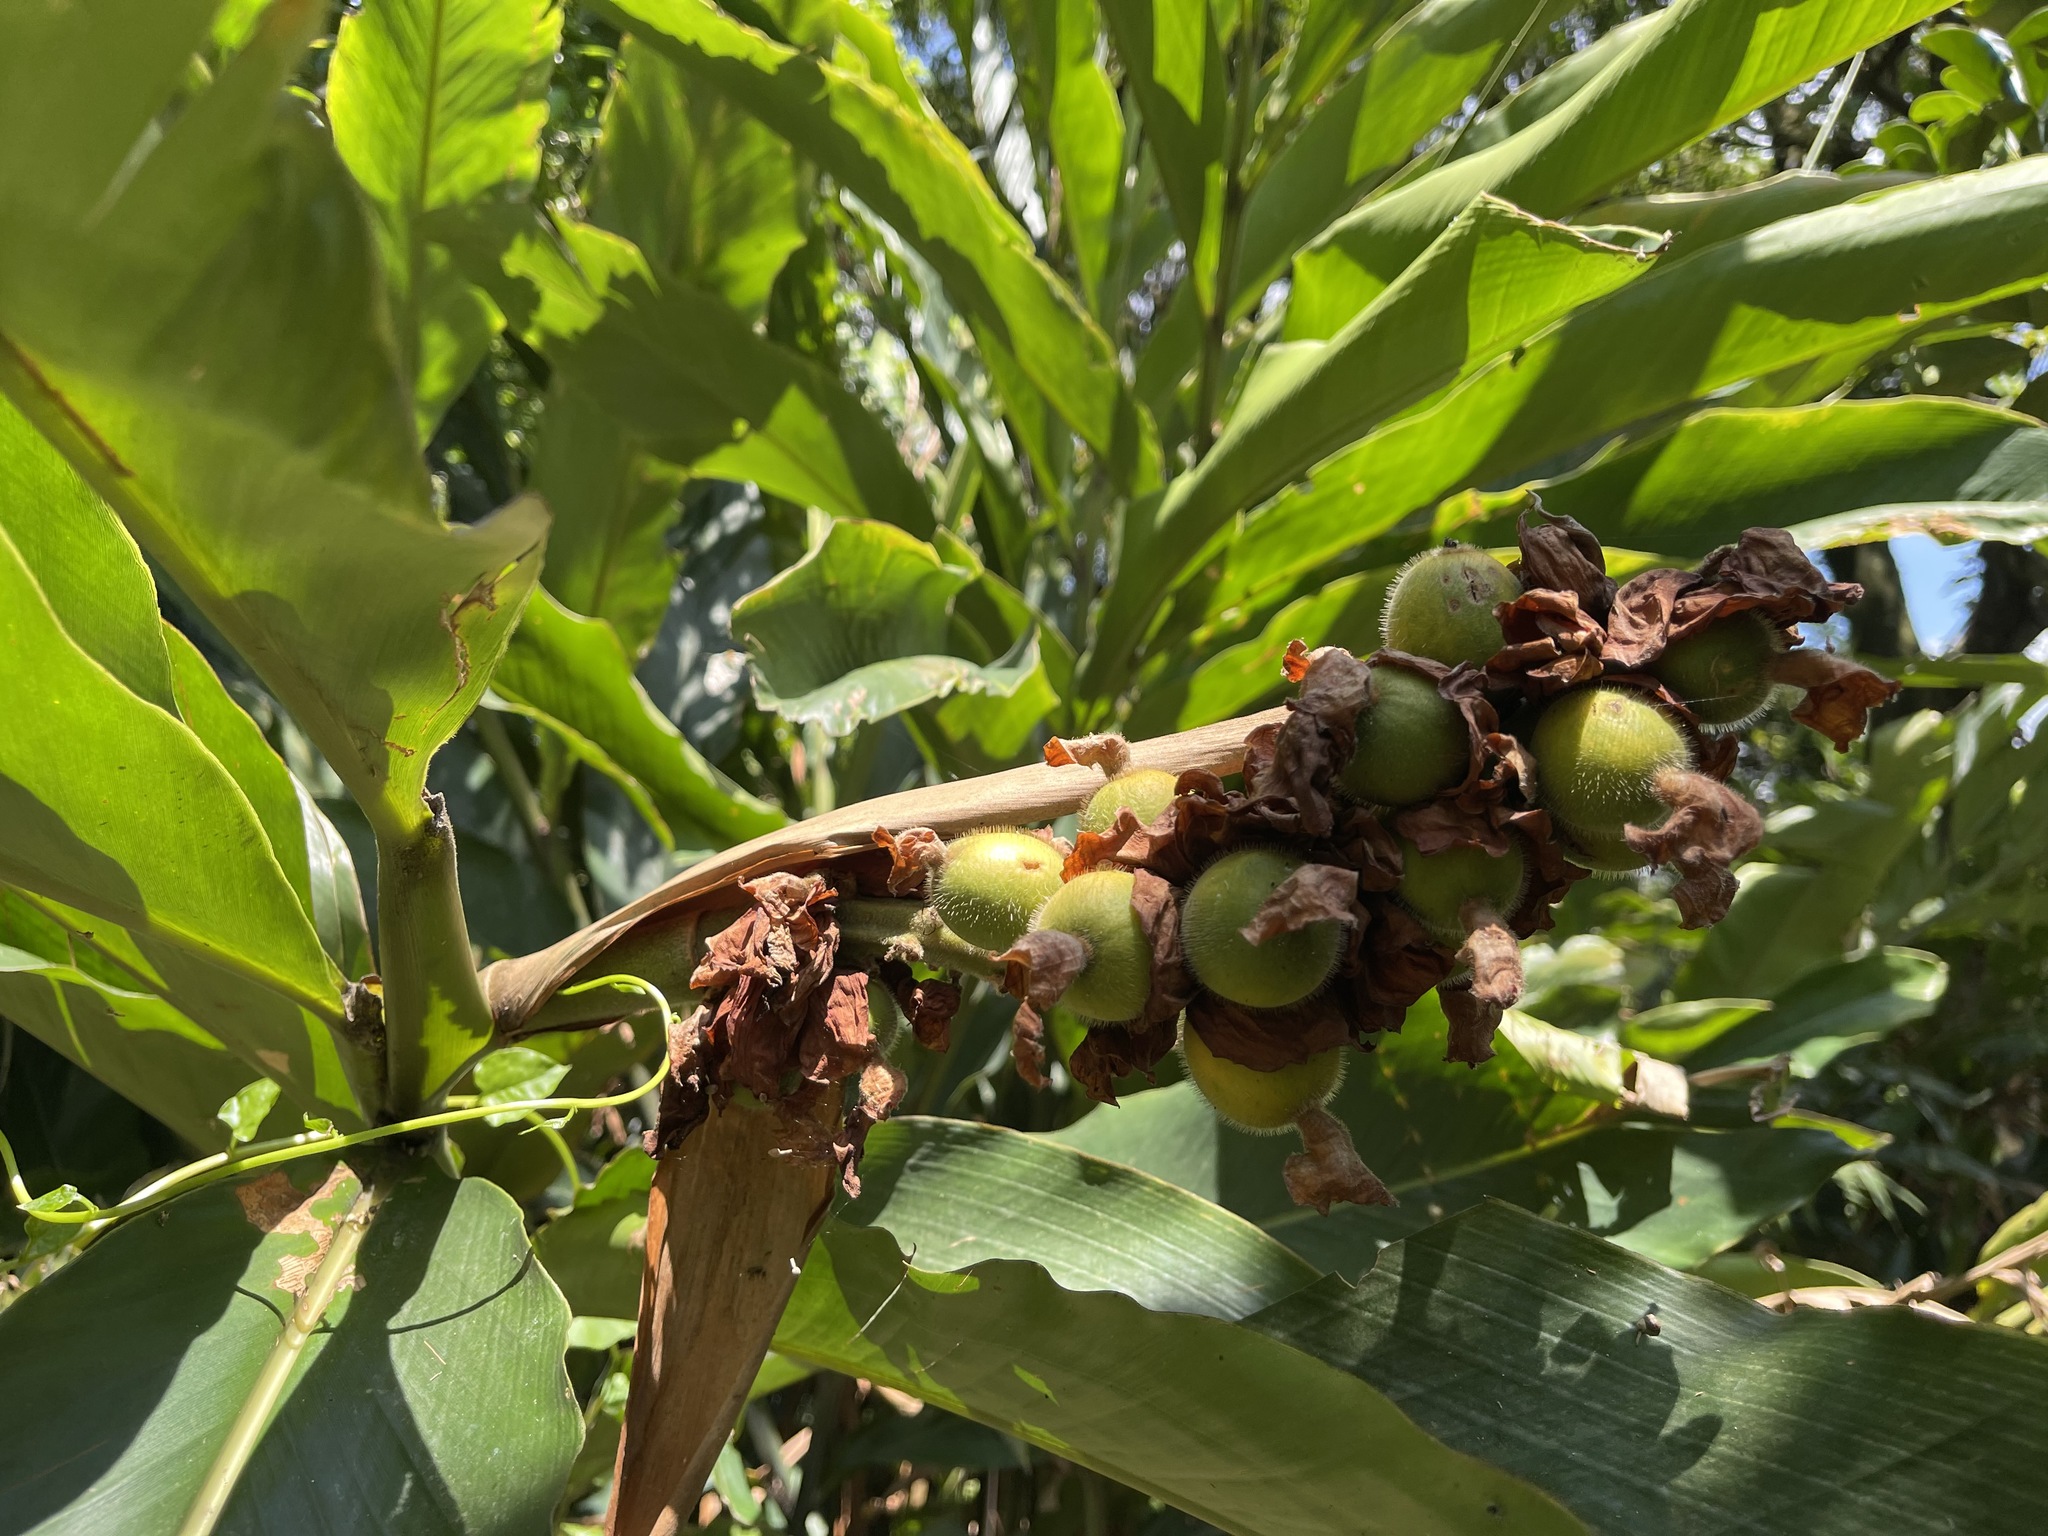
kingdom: Plantae
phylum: Tracheophyta
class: Liliopsida
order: Zingiberales
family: Zingiberaceae
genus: Alpinia
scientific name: Alpinia uraiensis
